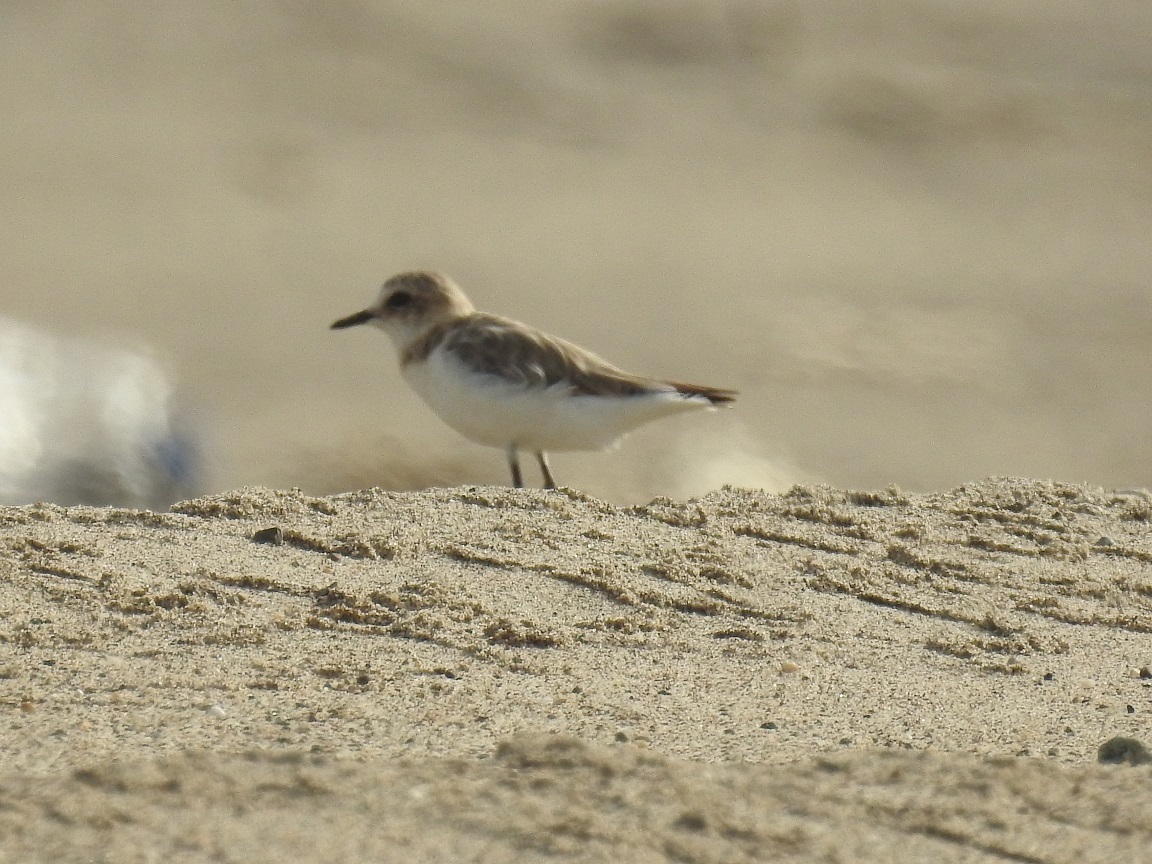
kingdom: Animalia
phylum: Chordata
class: Aves
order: Charadriiformes
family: Charadriidae
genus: Charadrius
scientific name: Charadrius alexandrinus
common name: Kentish plover
